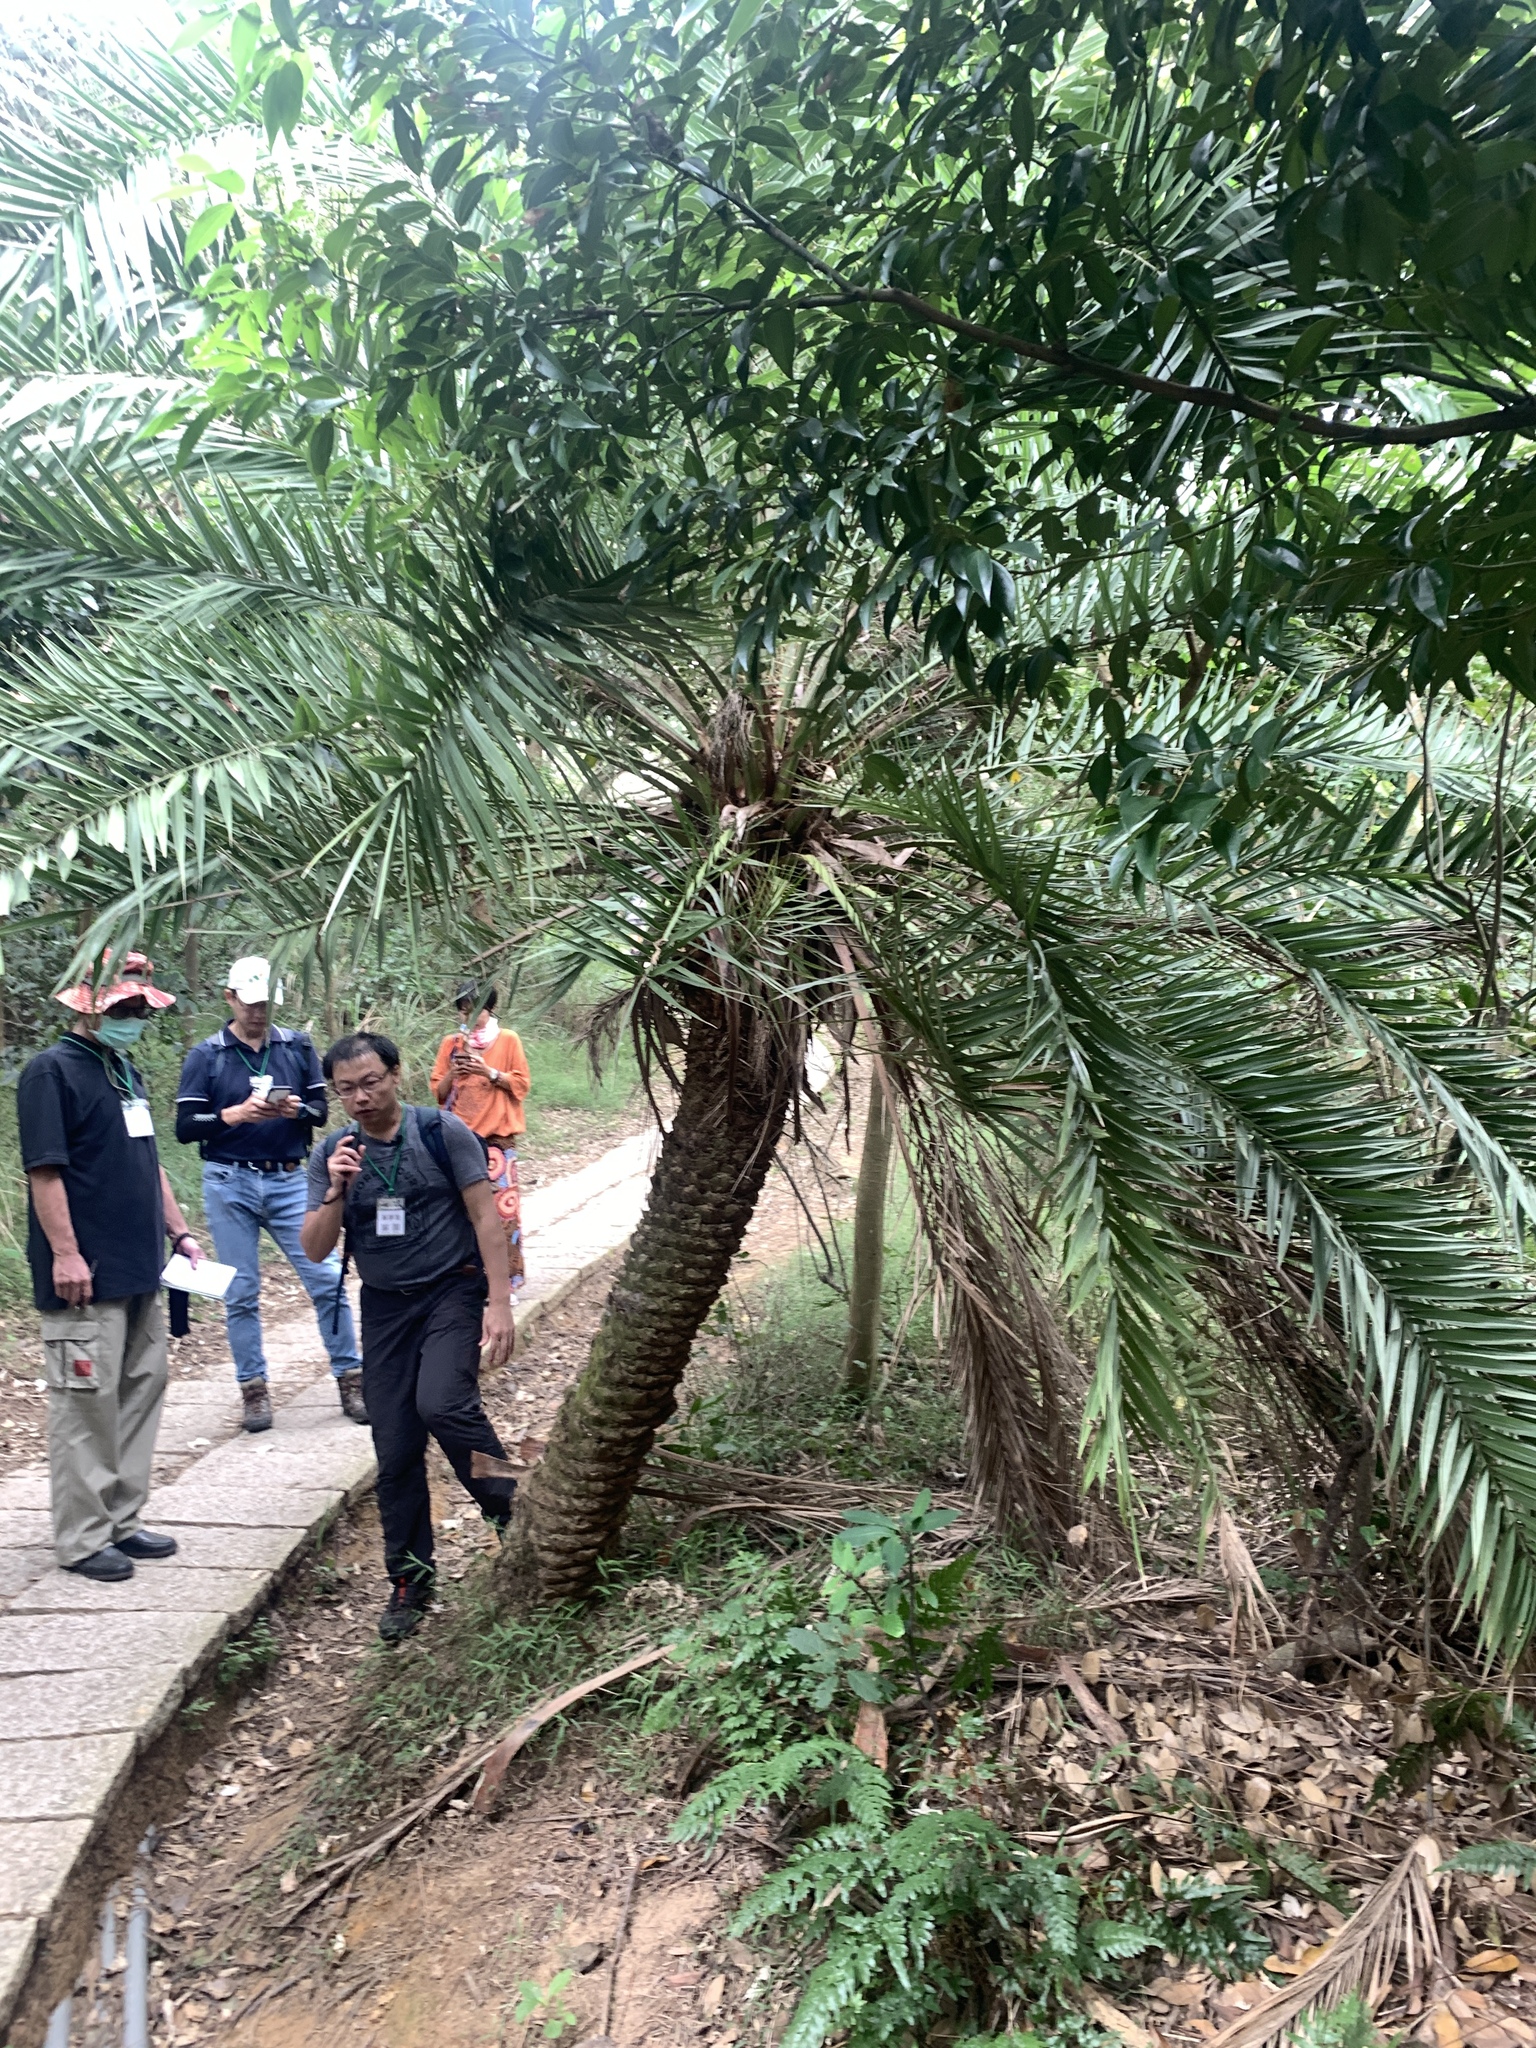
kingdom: Plantae
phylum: Tracheophyta
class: Liliopsida
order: Arecales
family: Arecaceae
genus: Phoenix
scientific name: Phoenix loureiroi
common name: Loureiro's palm
